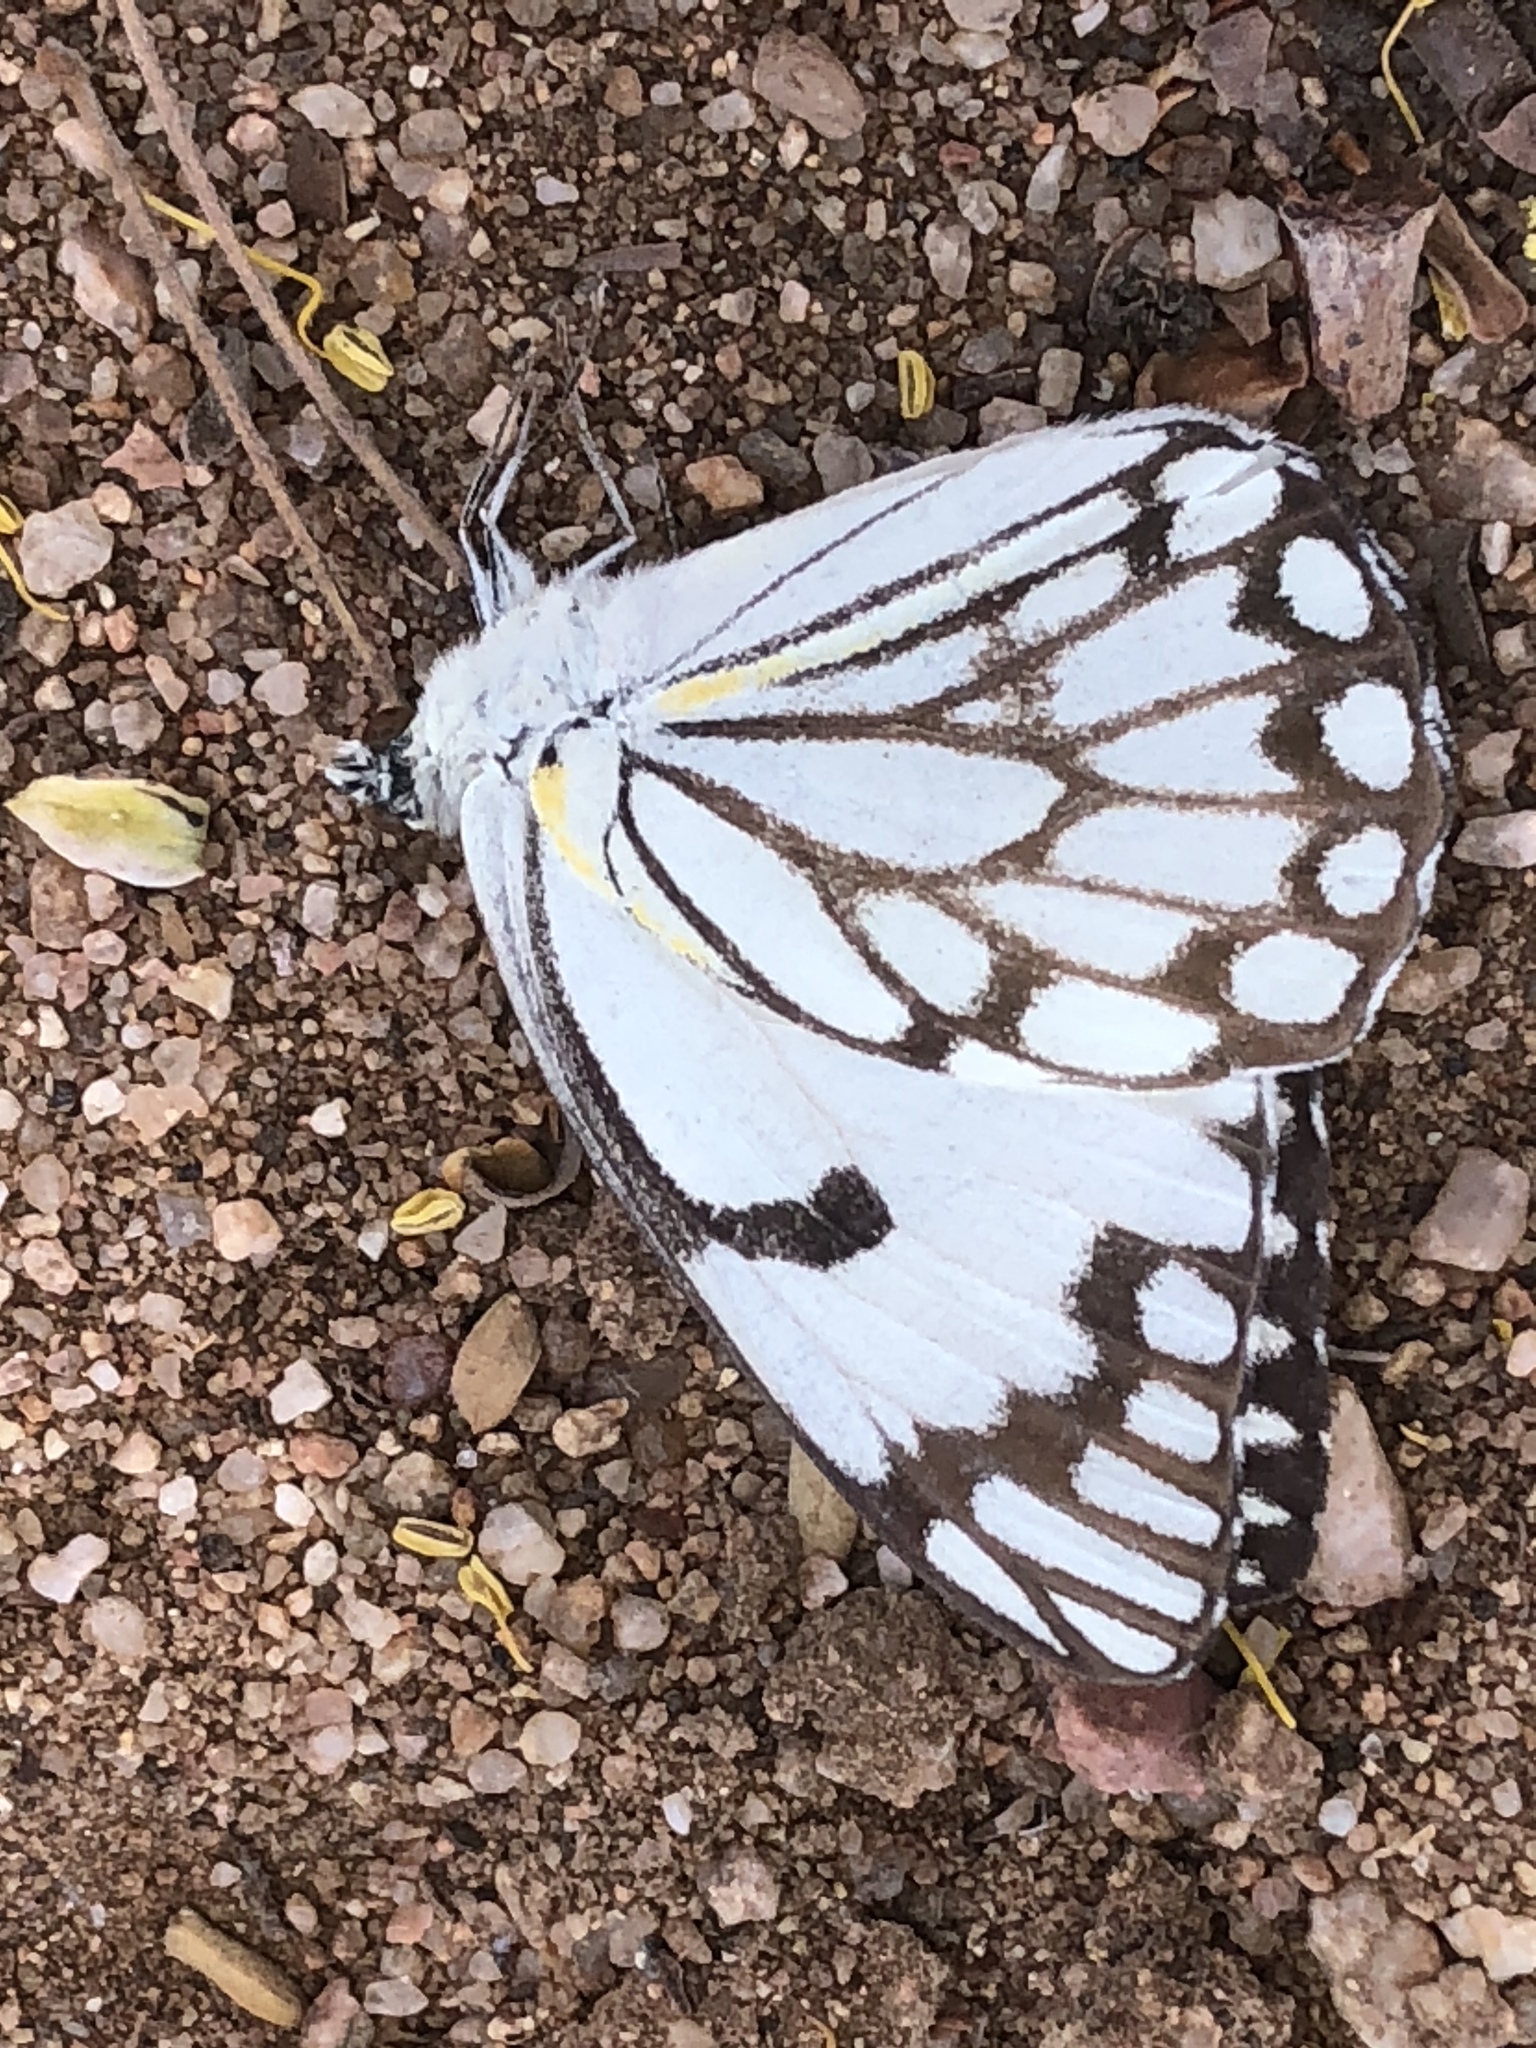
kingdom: Animalia
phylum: Arthropoda
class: Insecta
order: Lepidoptera
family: Pieridae
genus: Belenois
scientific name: Belenois aurota
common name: Brown-veined white
